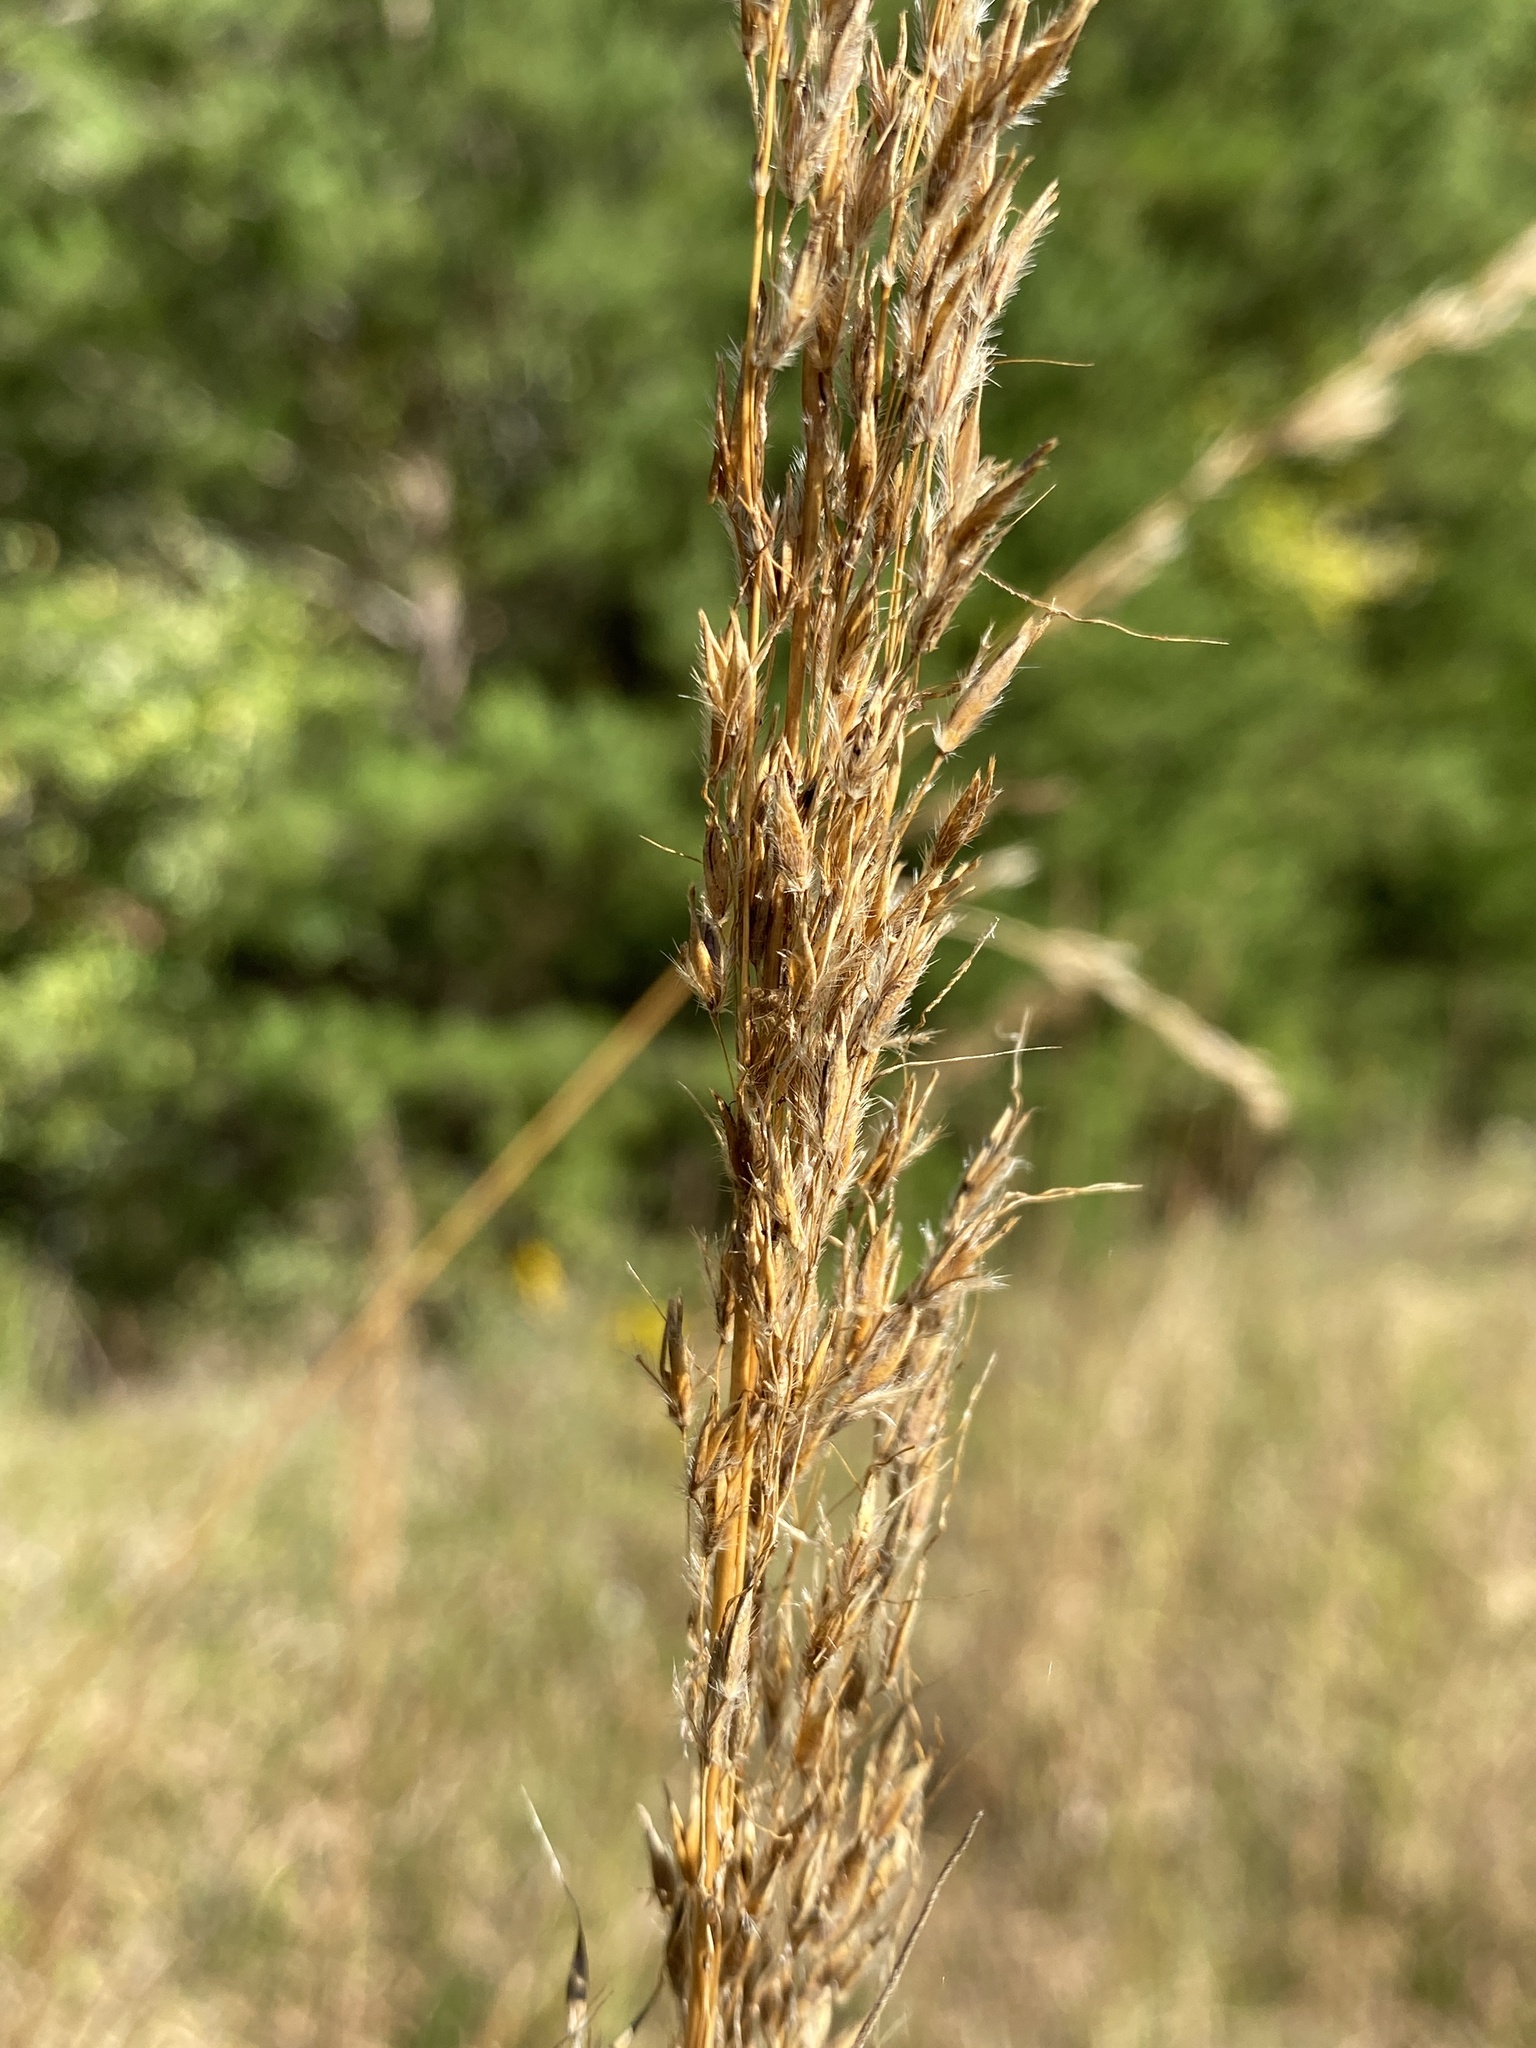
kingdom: Plantae
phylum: Tracheophyta
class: Liliopsida
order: Poales
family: Poaceae
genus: Sorghastrum
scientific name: Sorghastrum nutans
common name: Indian grass
